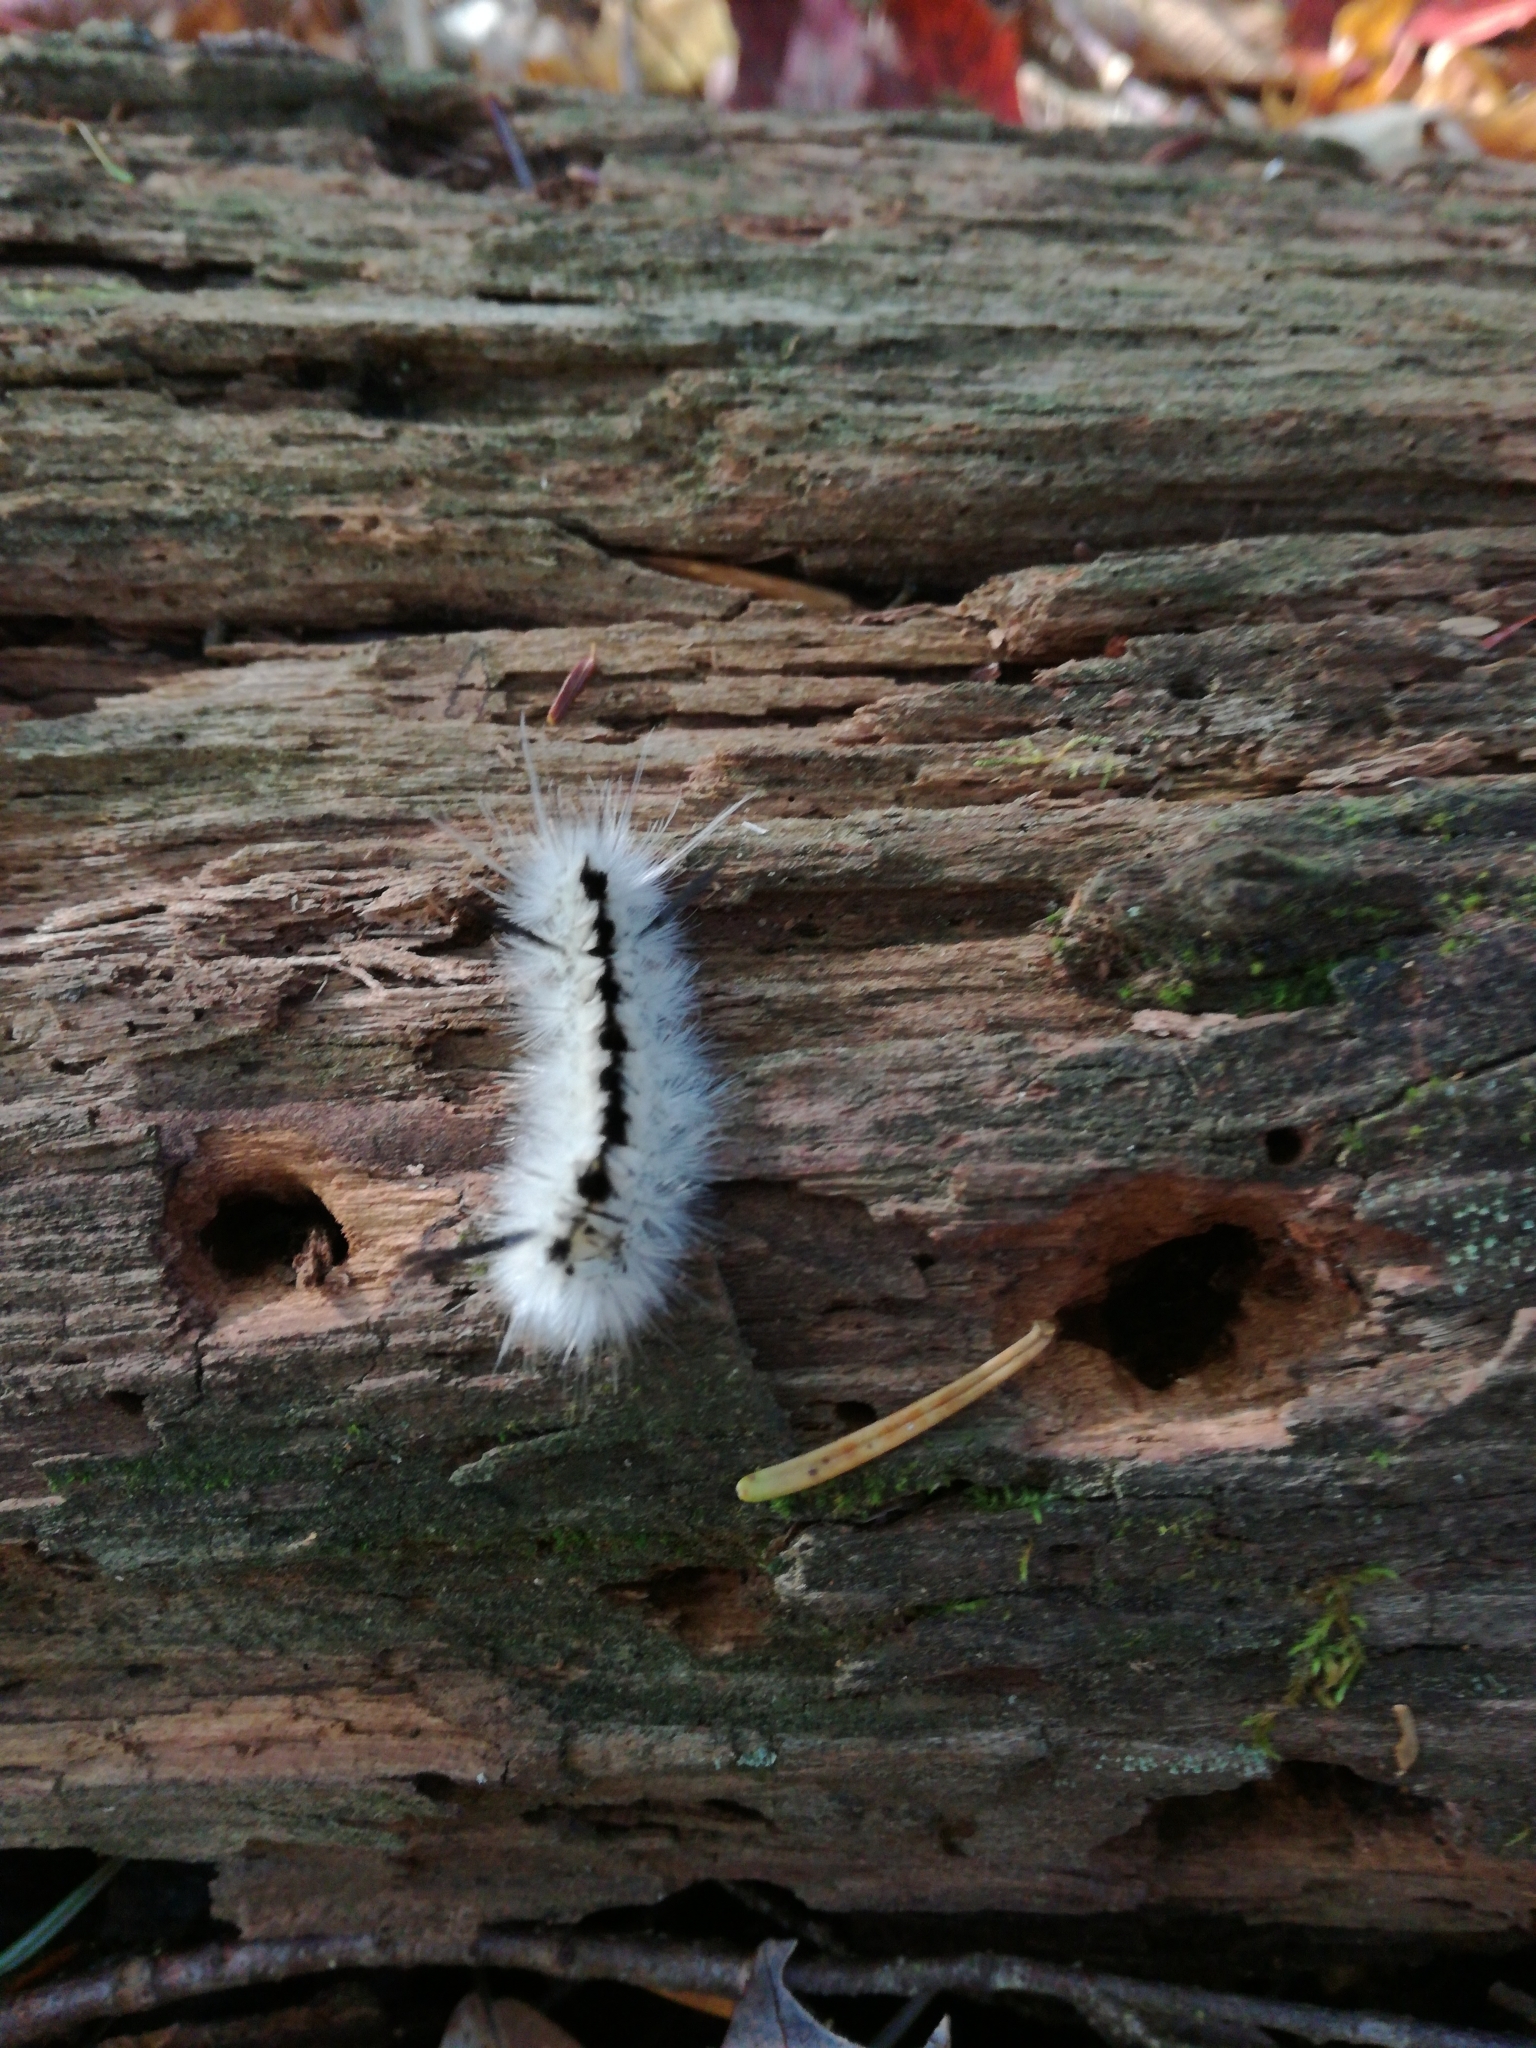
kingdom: Animalia
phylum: Arthropoda
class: Insecta
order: Lepidoptera
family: Erebidae
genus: Lophocampa
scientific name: Lophocampa caryae
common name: Hickory tussock moth
